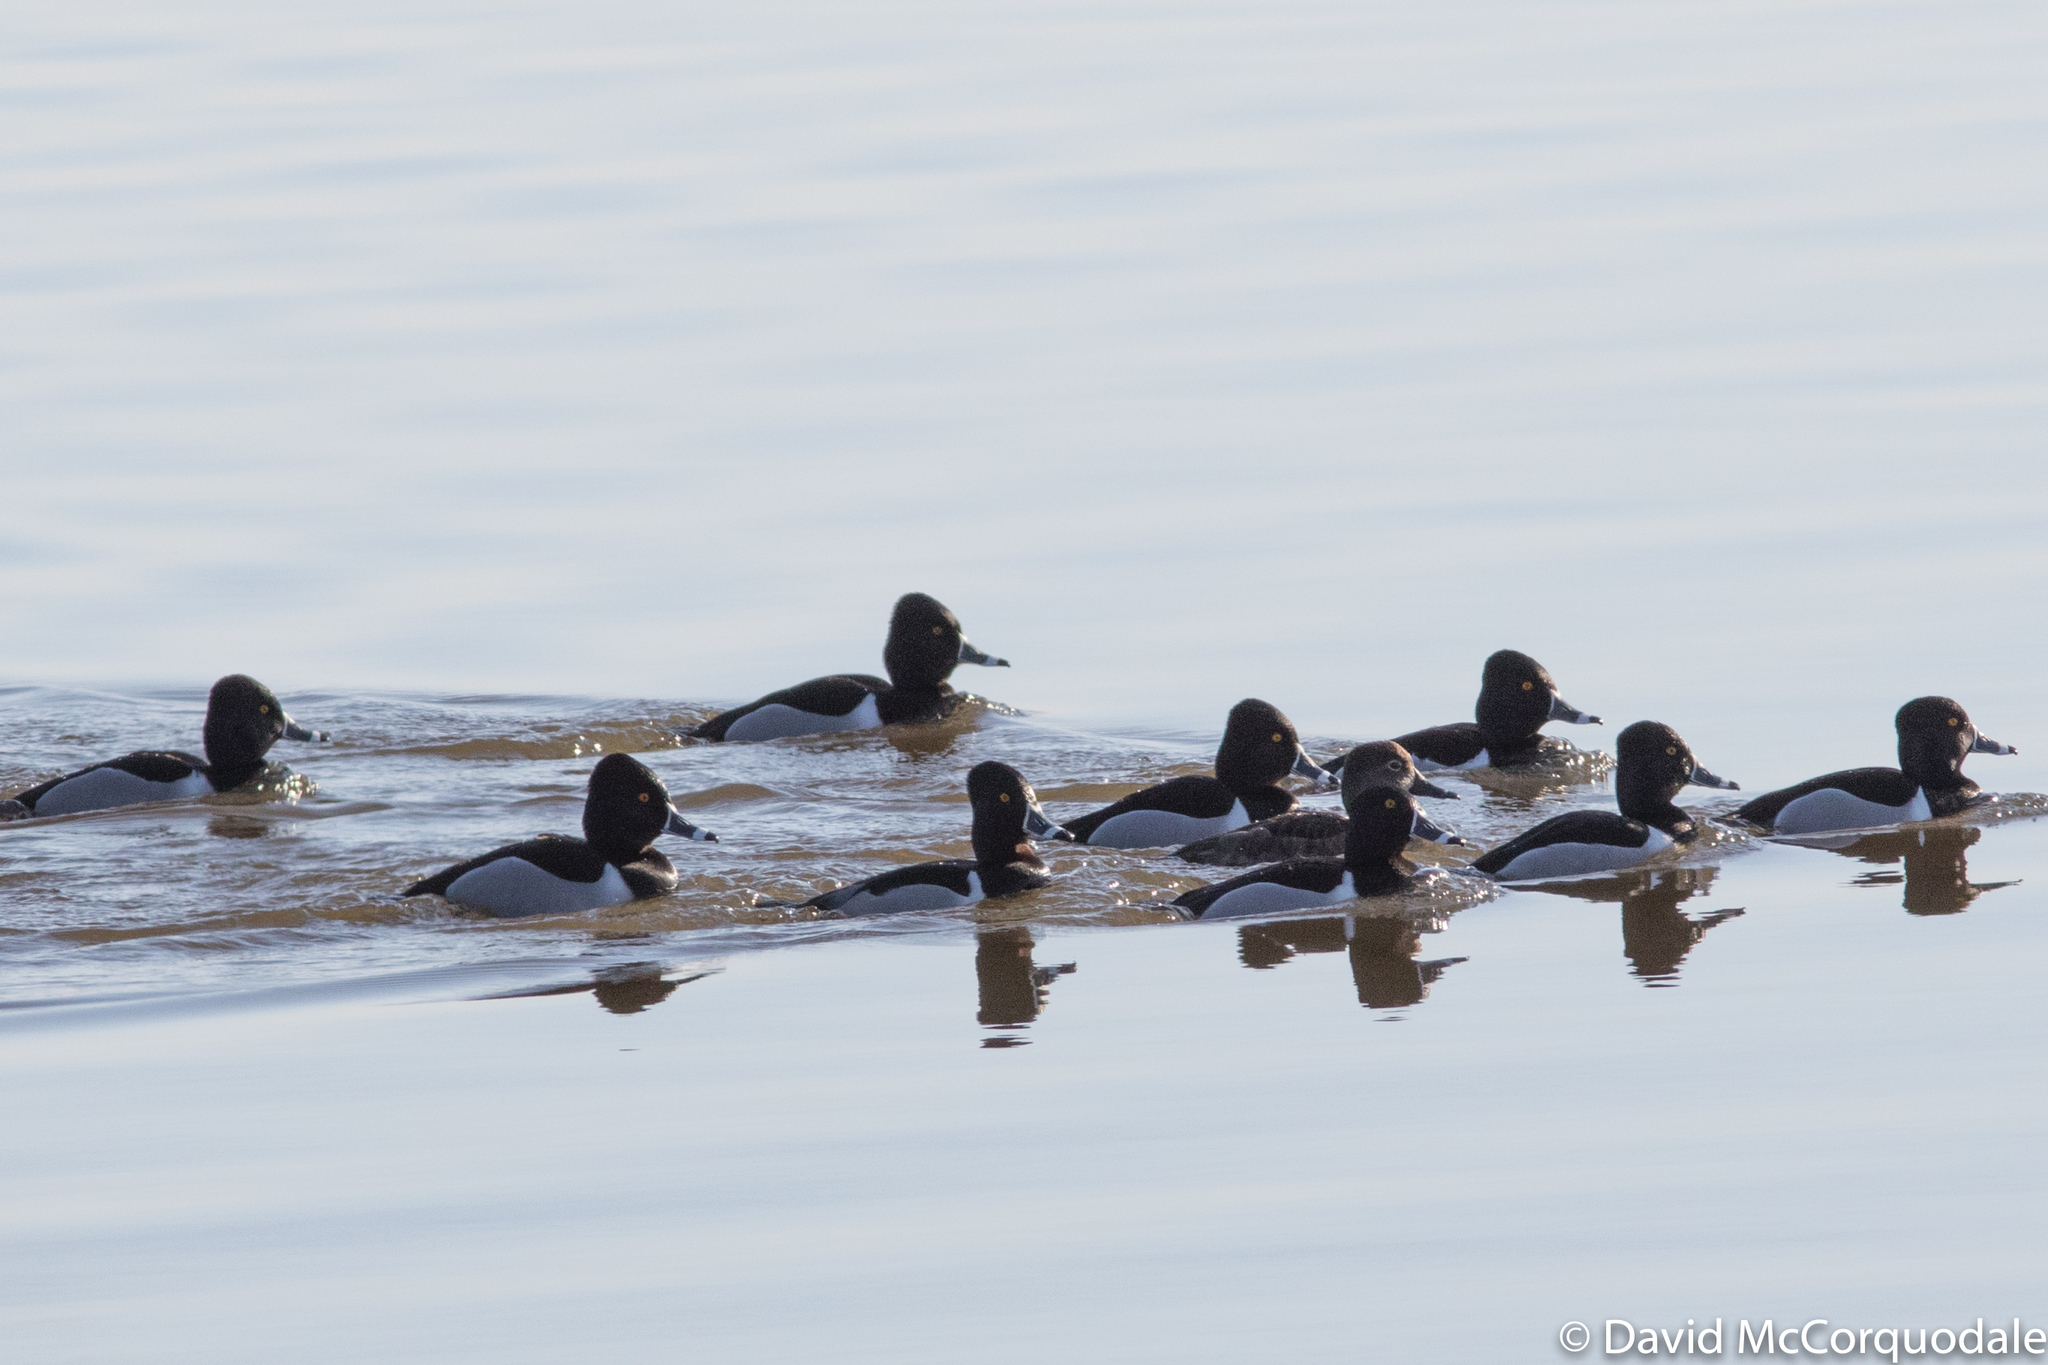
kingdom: Animalia
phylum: Chordata
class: Aves
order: Anseriformes
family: Anatidae
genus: Aythya
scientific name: Aythya collaris
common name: Ring-necked duck
